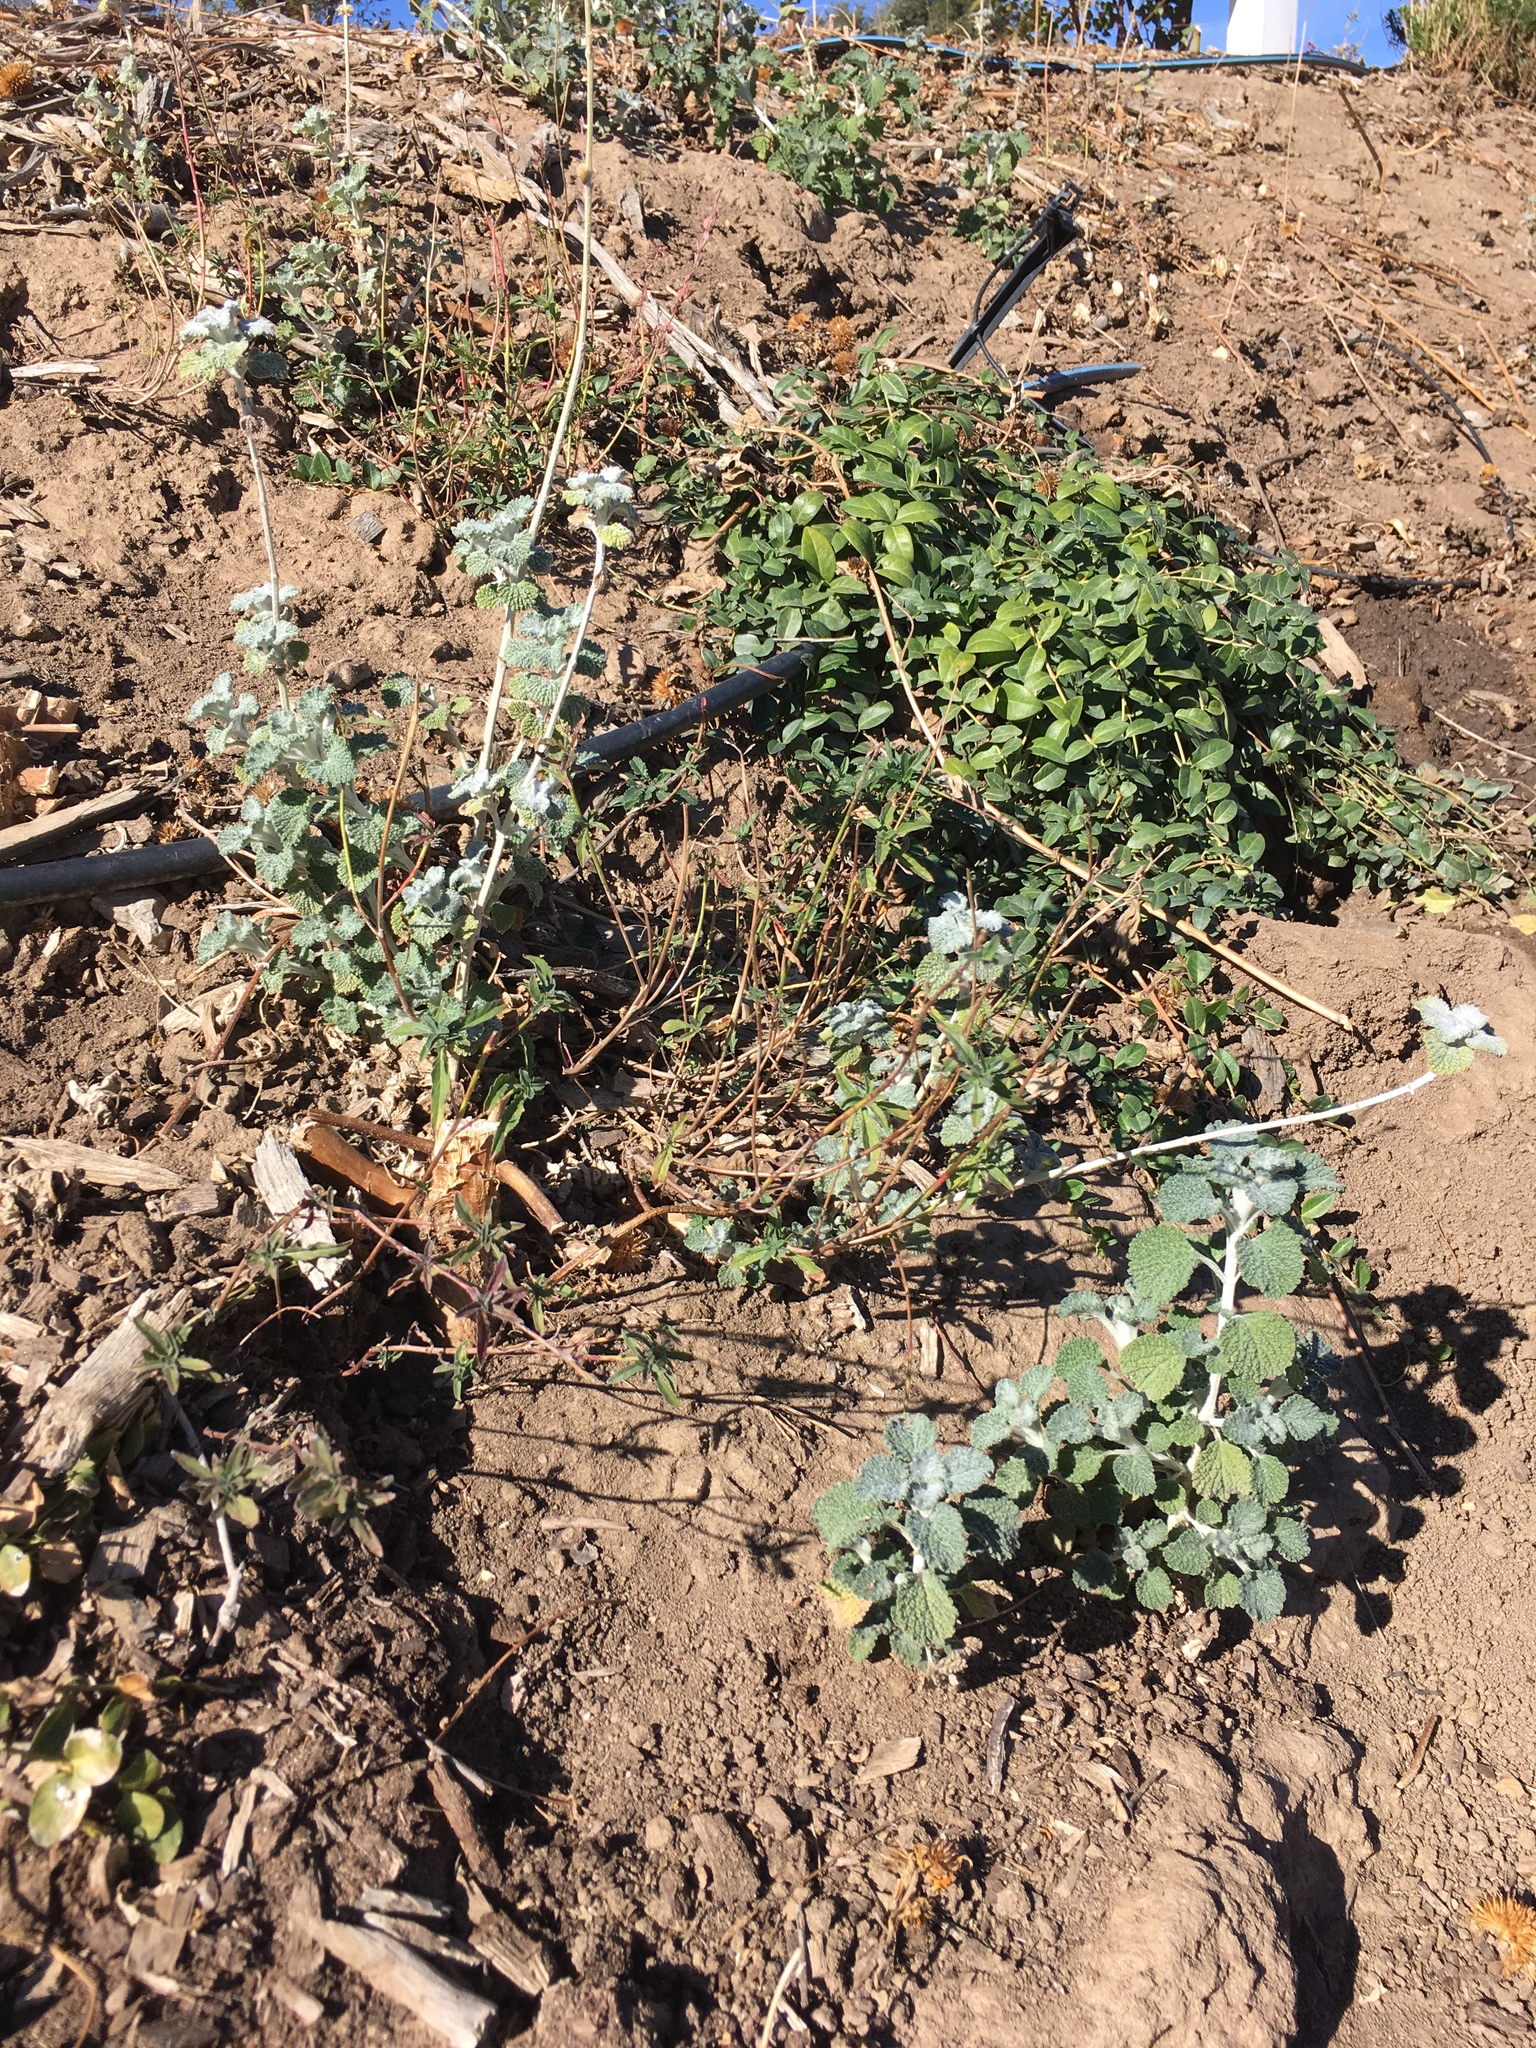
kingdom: Plantae
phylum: Tracheophyta
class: Magnoliopsida
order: Lamiales
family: Lamiaceae
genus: Marrubium
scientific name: Marrubium vulgare
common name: Horehound
